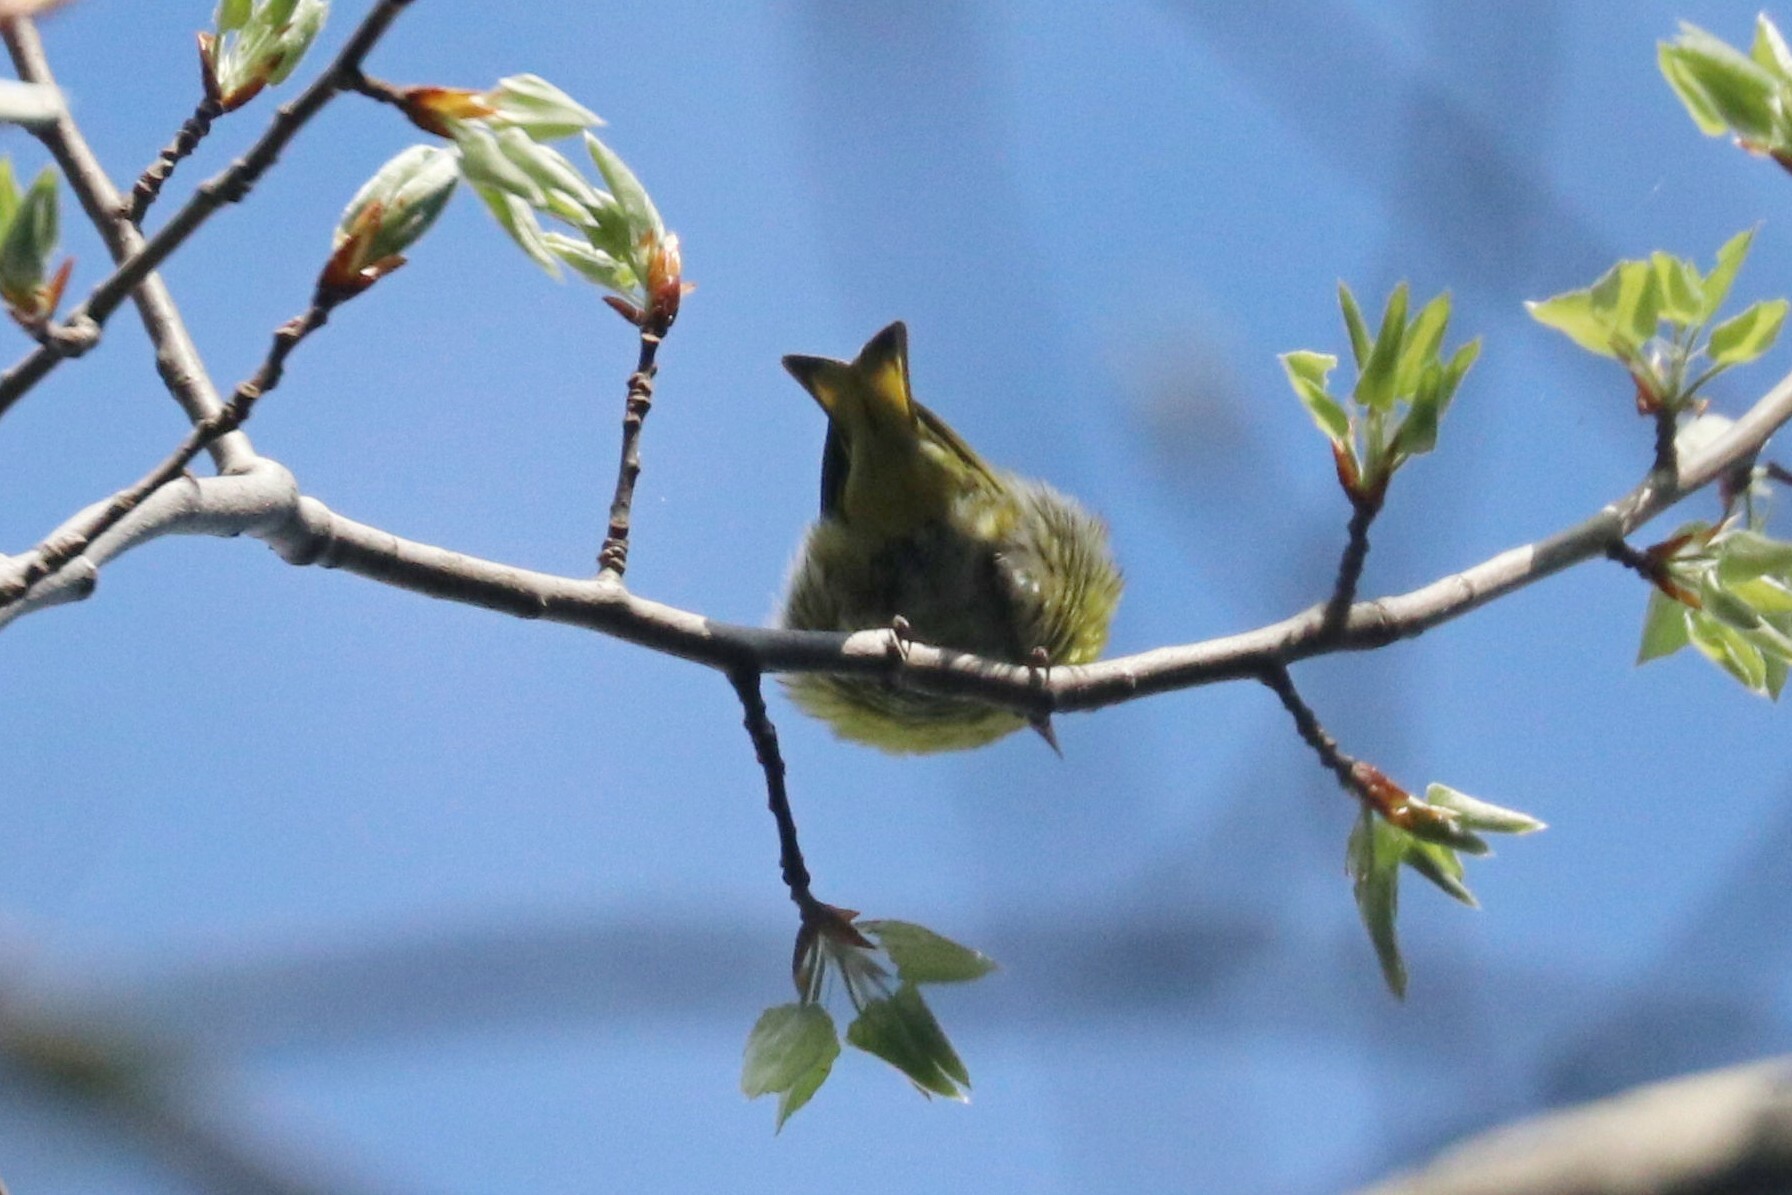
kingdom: Animalia
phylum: Chordata
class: Aves
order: Passeriformes
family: Fringillidae
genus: Spinus
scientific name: Spinus spinus
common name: Eurasian siskin
